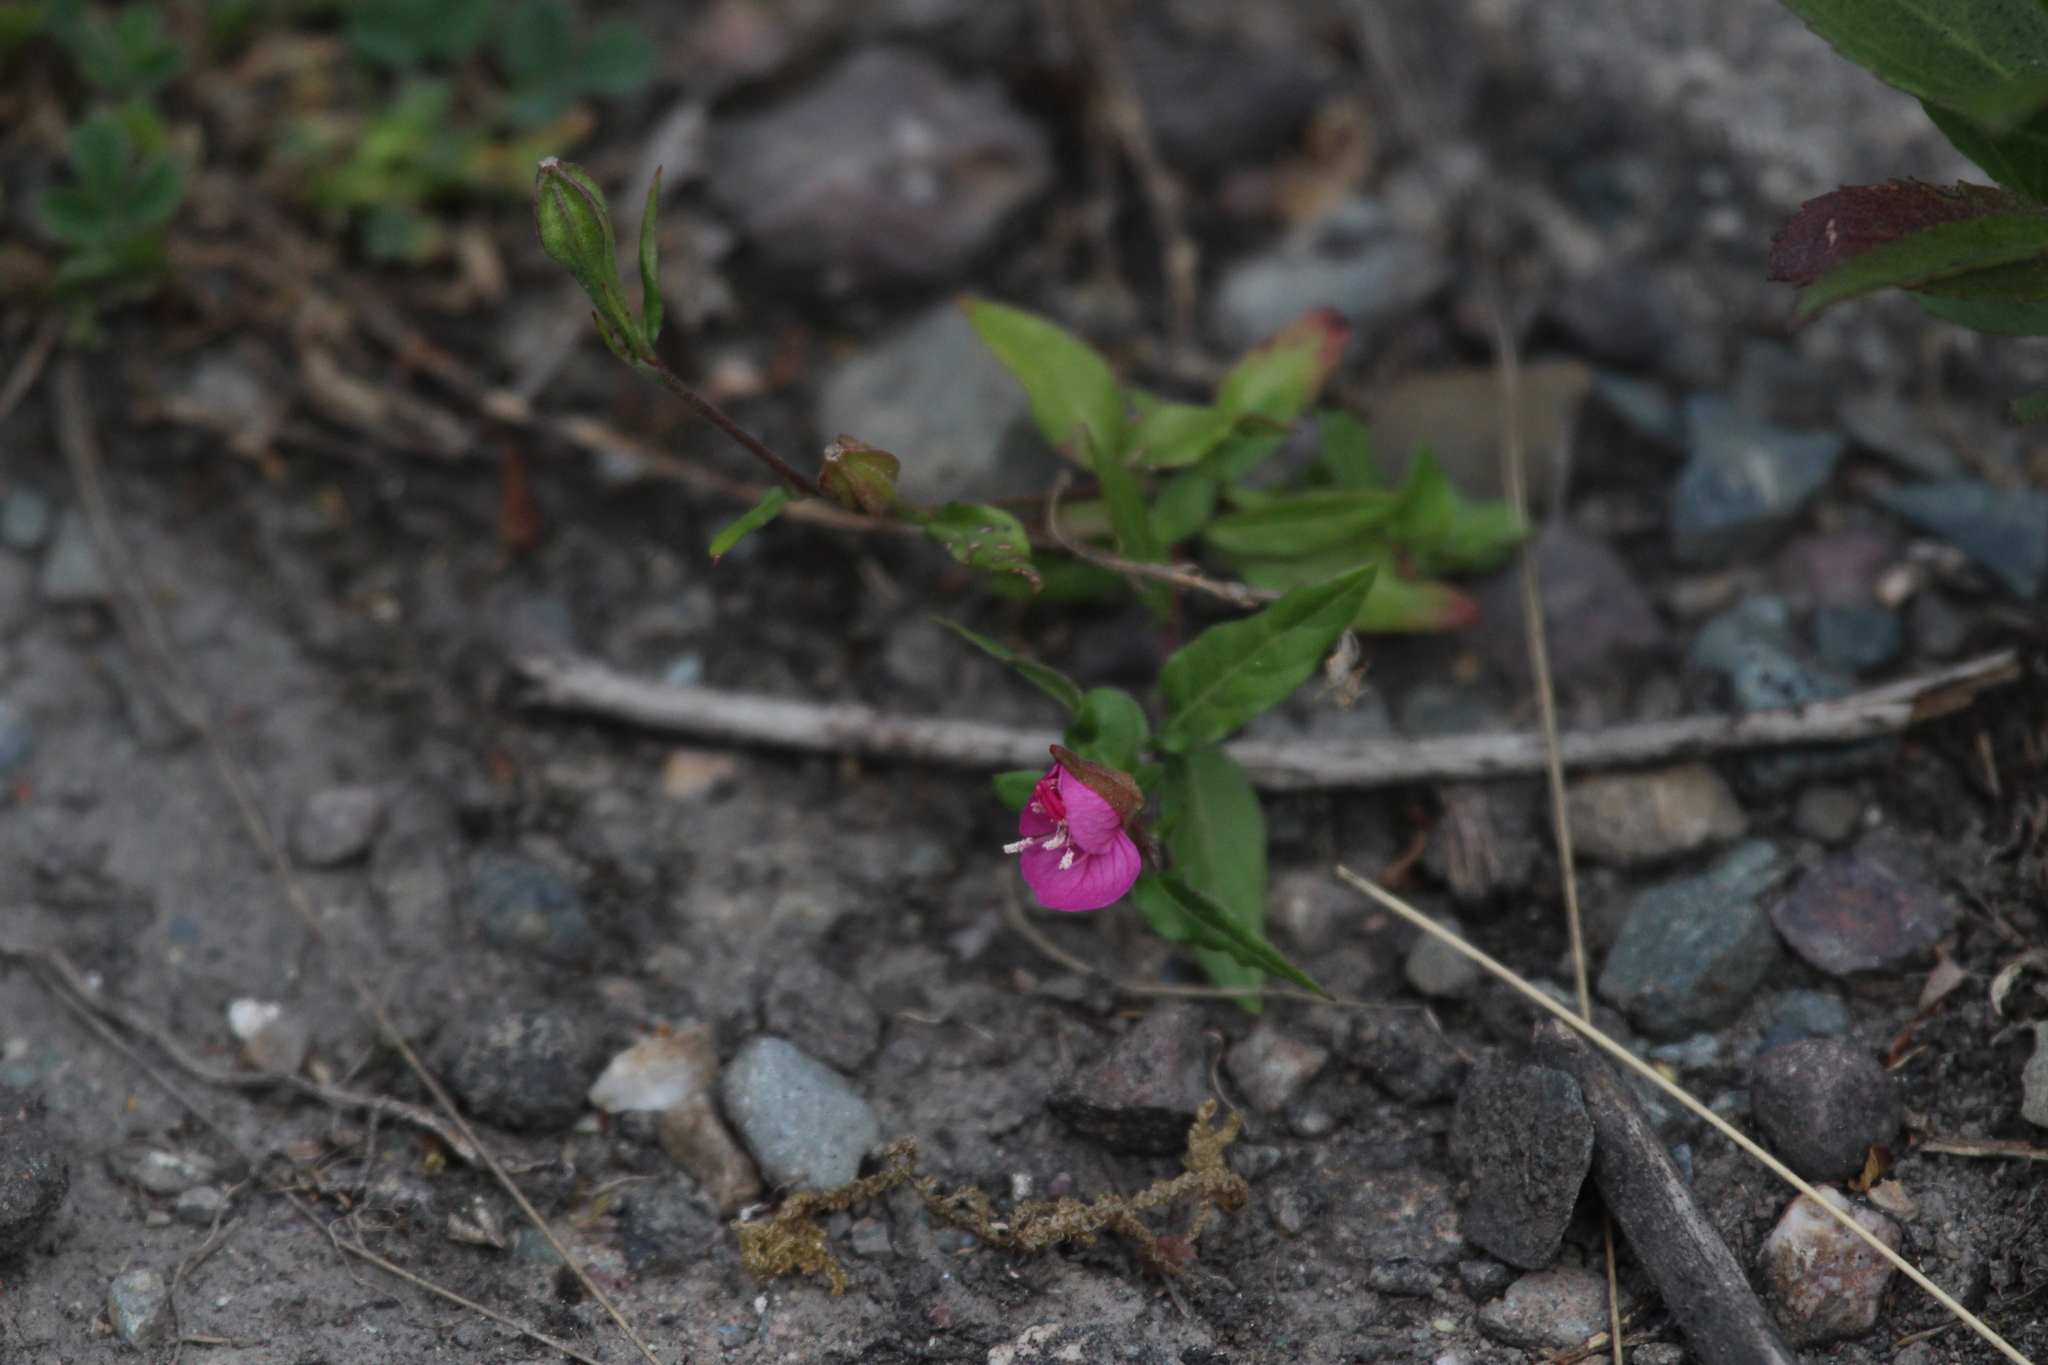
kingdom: Plantae
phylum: Tracheophyta
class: Magnoliopsida
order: Myrtales
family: Onagraceae
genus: Oenothera
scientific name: Oenothera rosea
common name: Rosy evening-primrose
